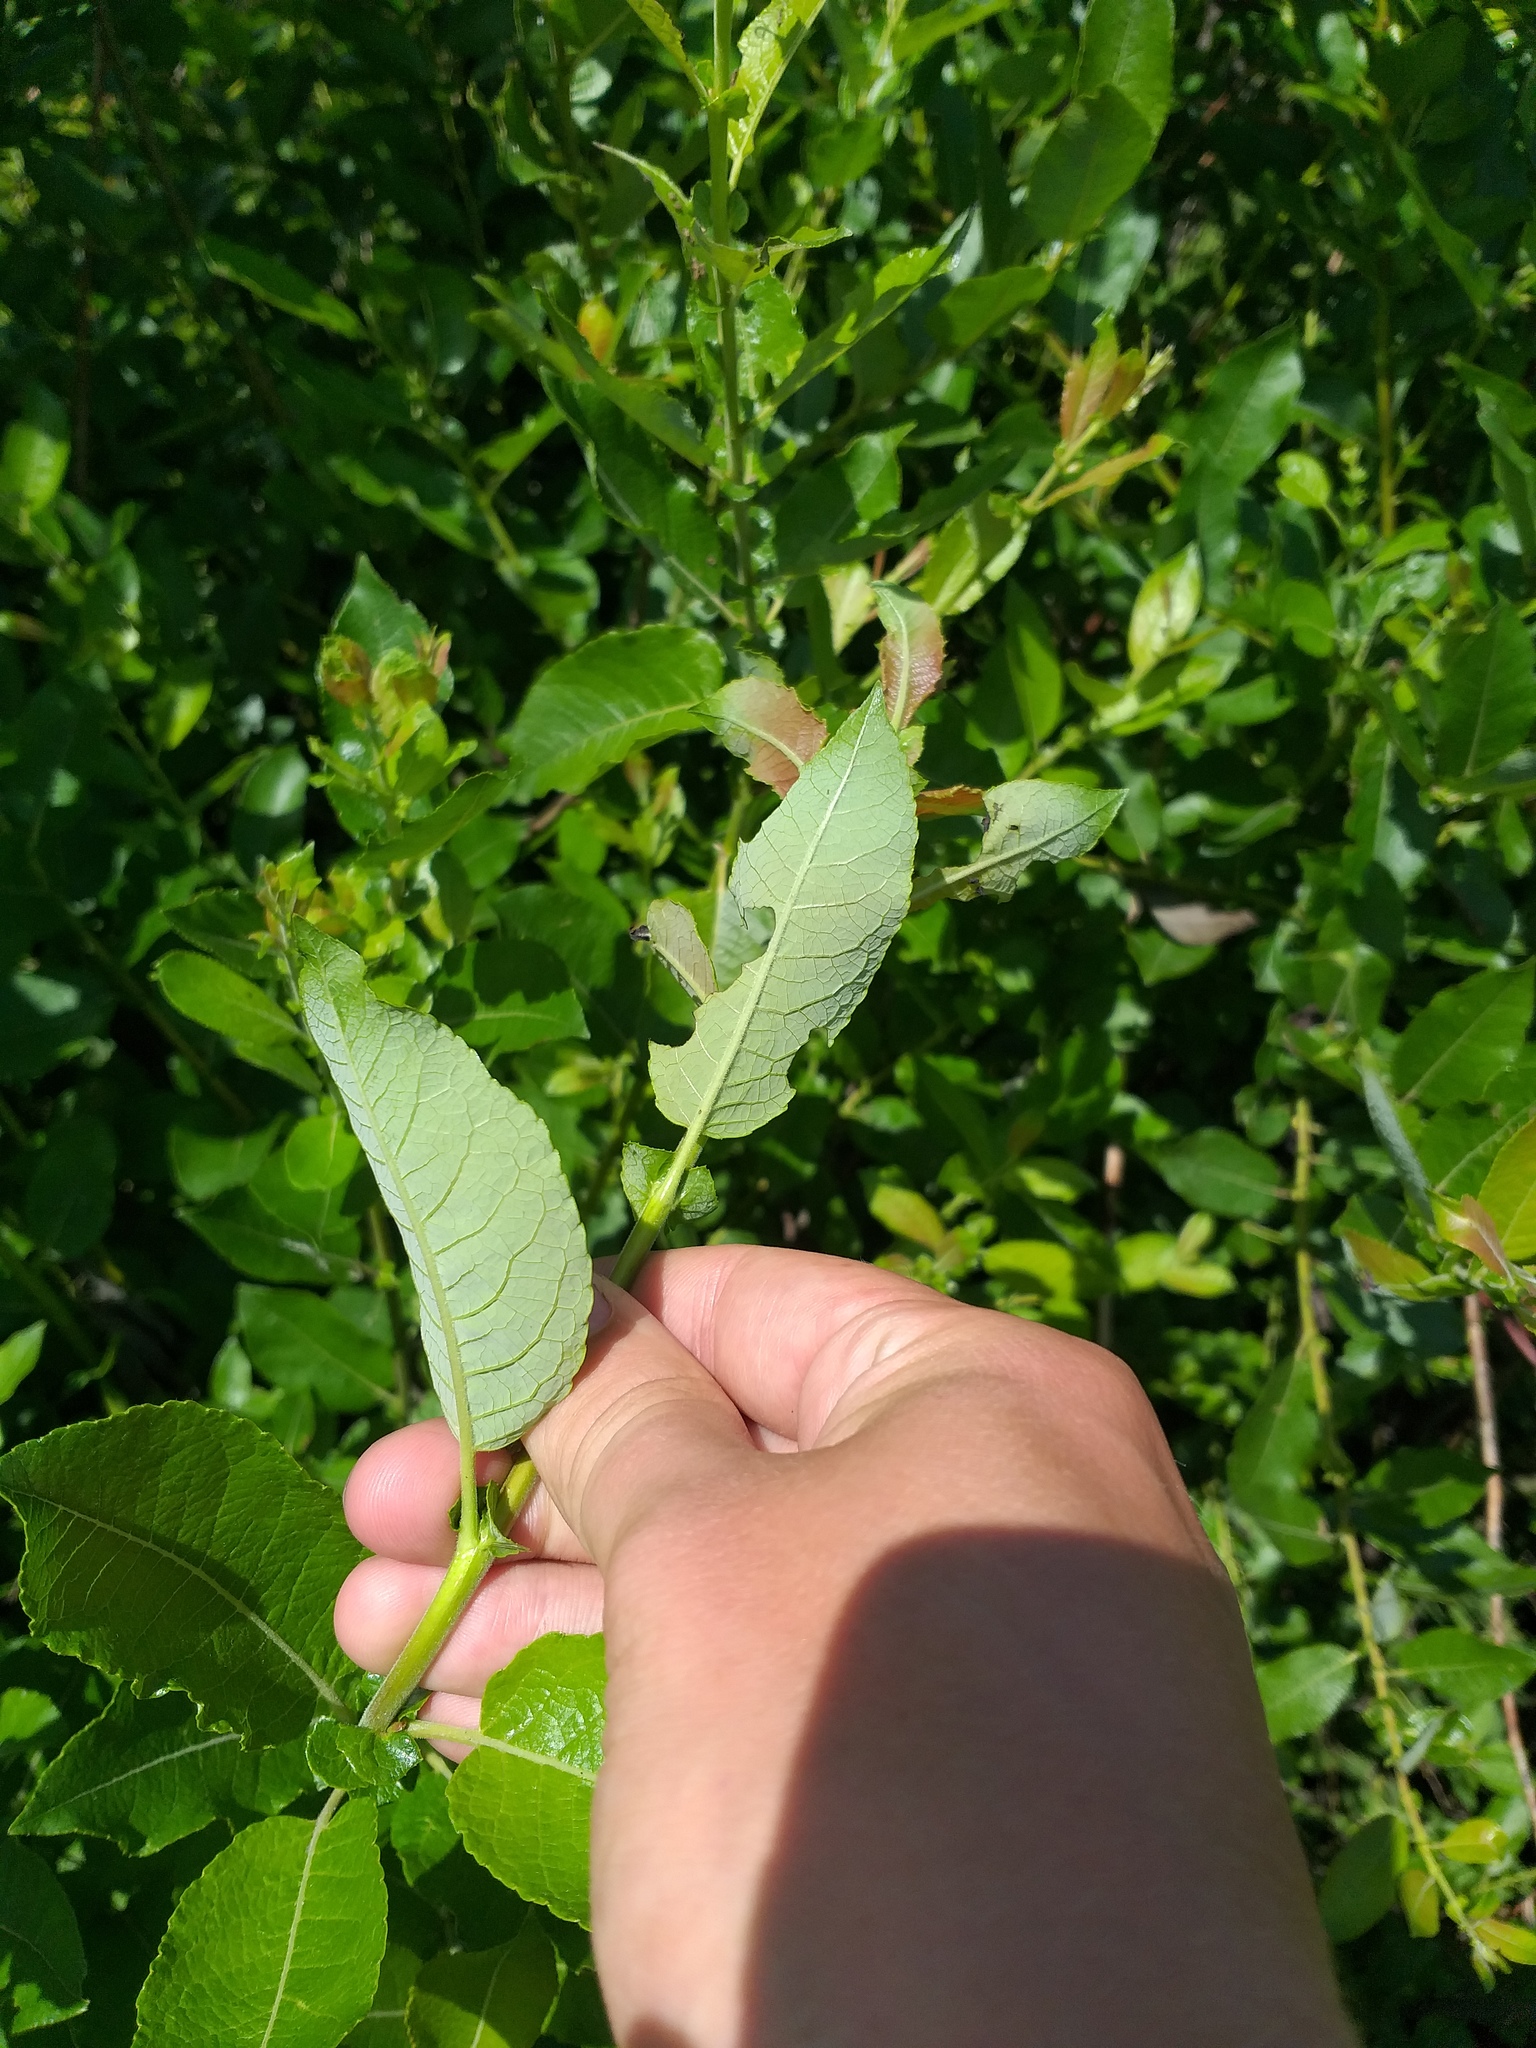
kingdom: Plantae
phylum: Tracheophyta
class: Magnoliopsida
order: Malpighiales
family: Salicaceae
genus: Salix
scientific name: Salix myrsinifolia
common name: Dark-leaved willow
